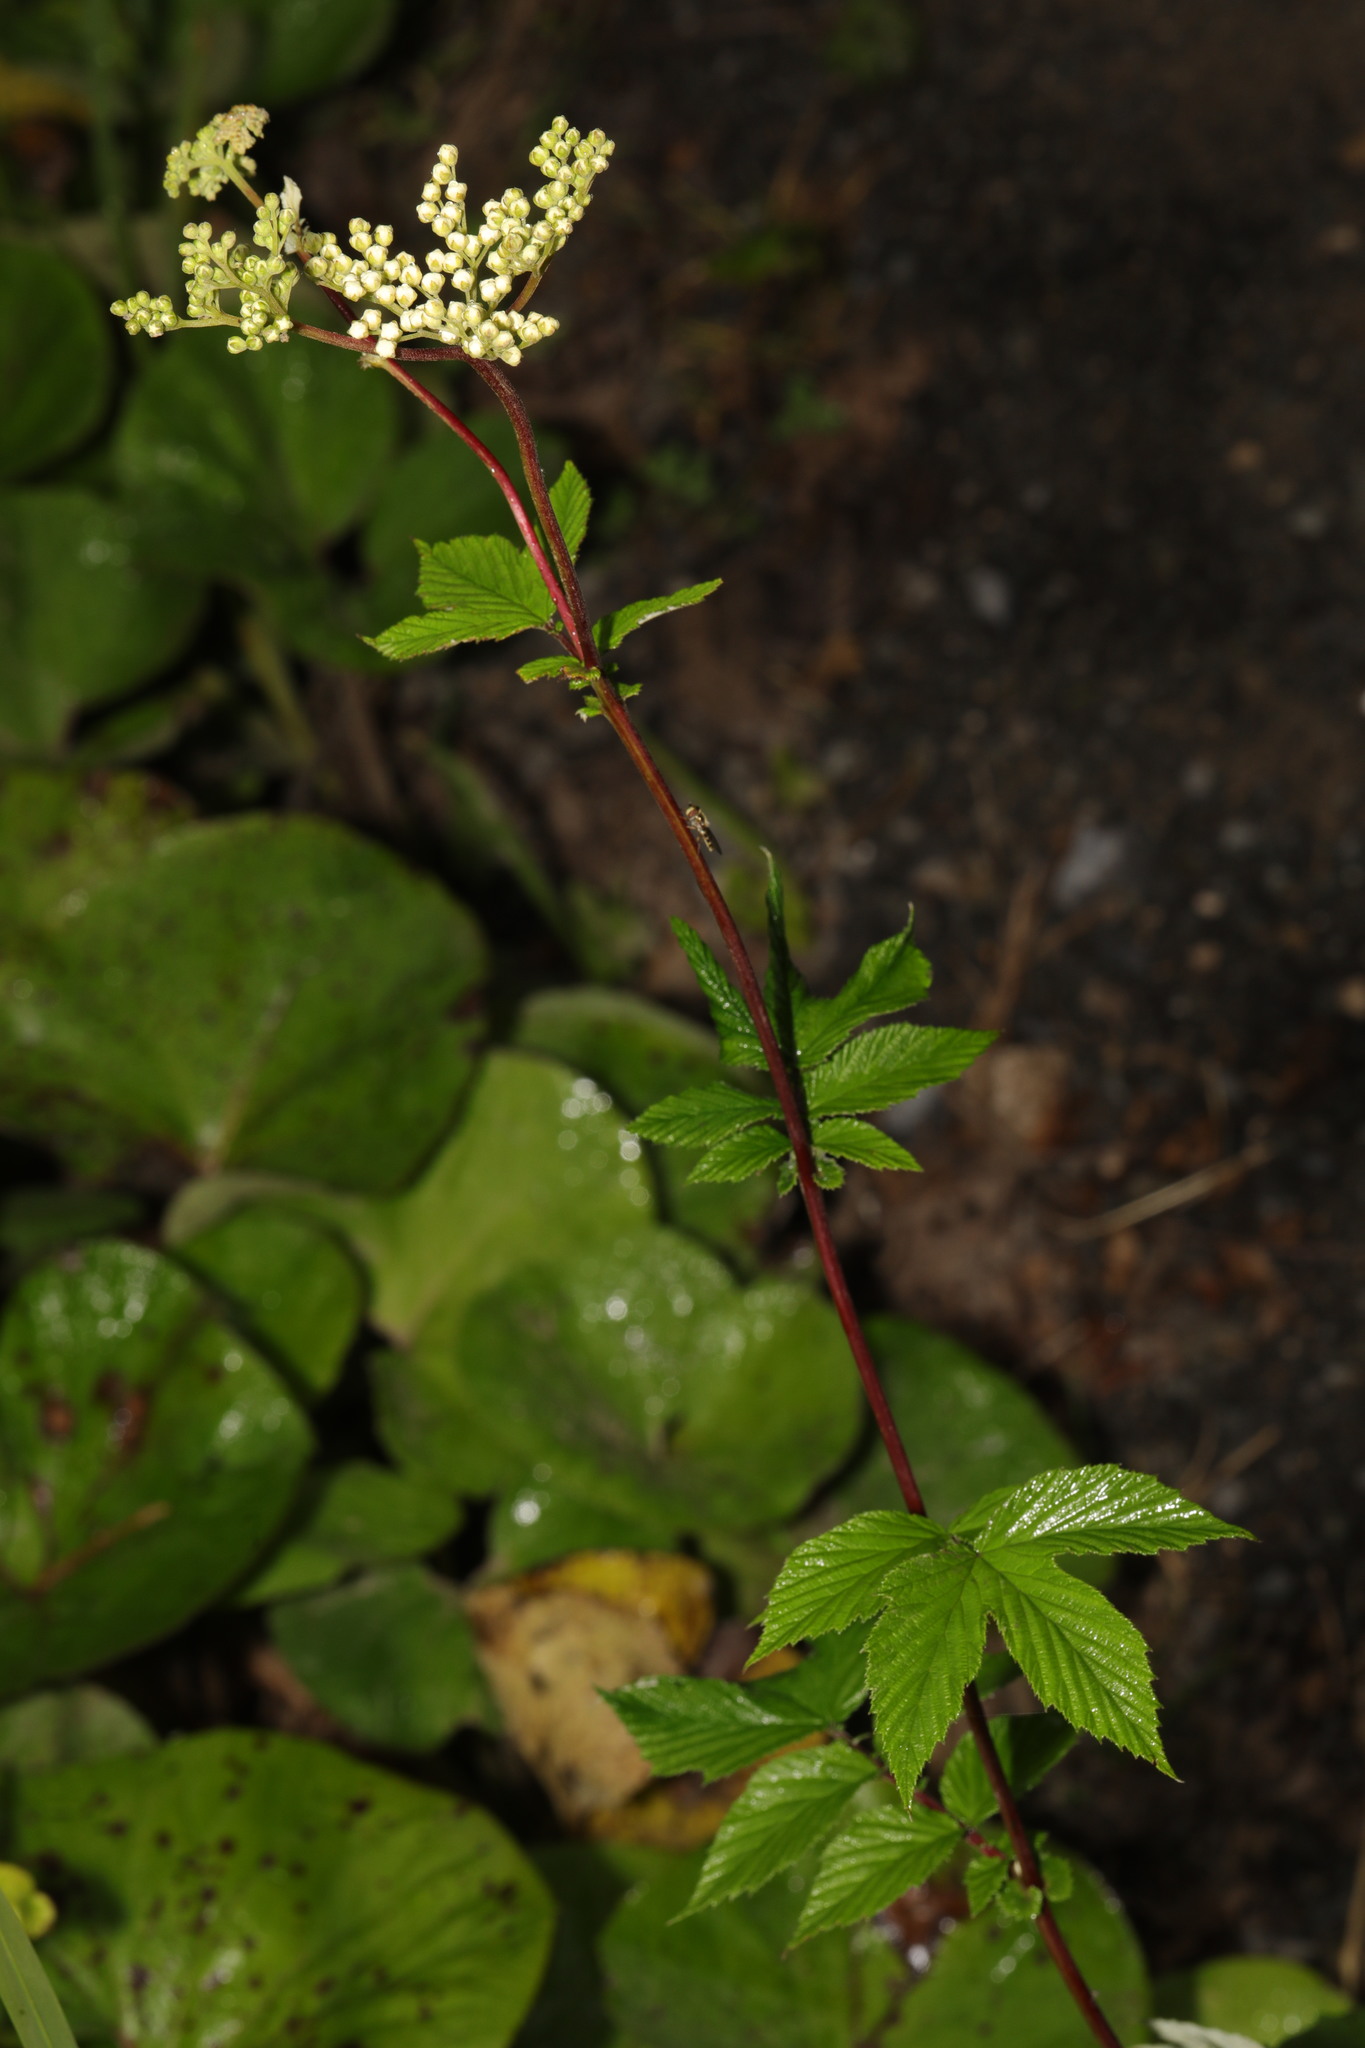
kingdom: Plantae
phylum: Tracheophyta
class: Magnoliopsida
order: Rosales
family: Rosaceae
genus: Filipendula
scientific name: Filipendula ulmaria
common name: Meadowsweet
